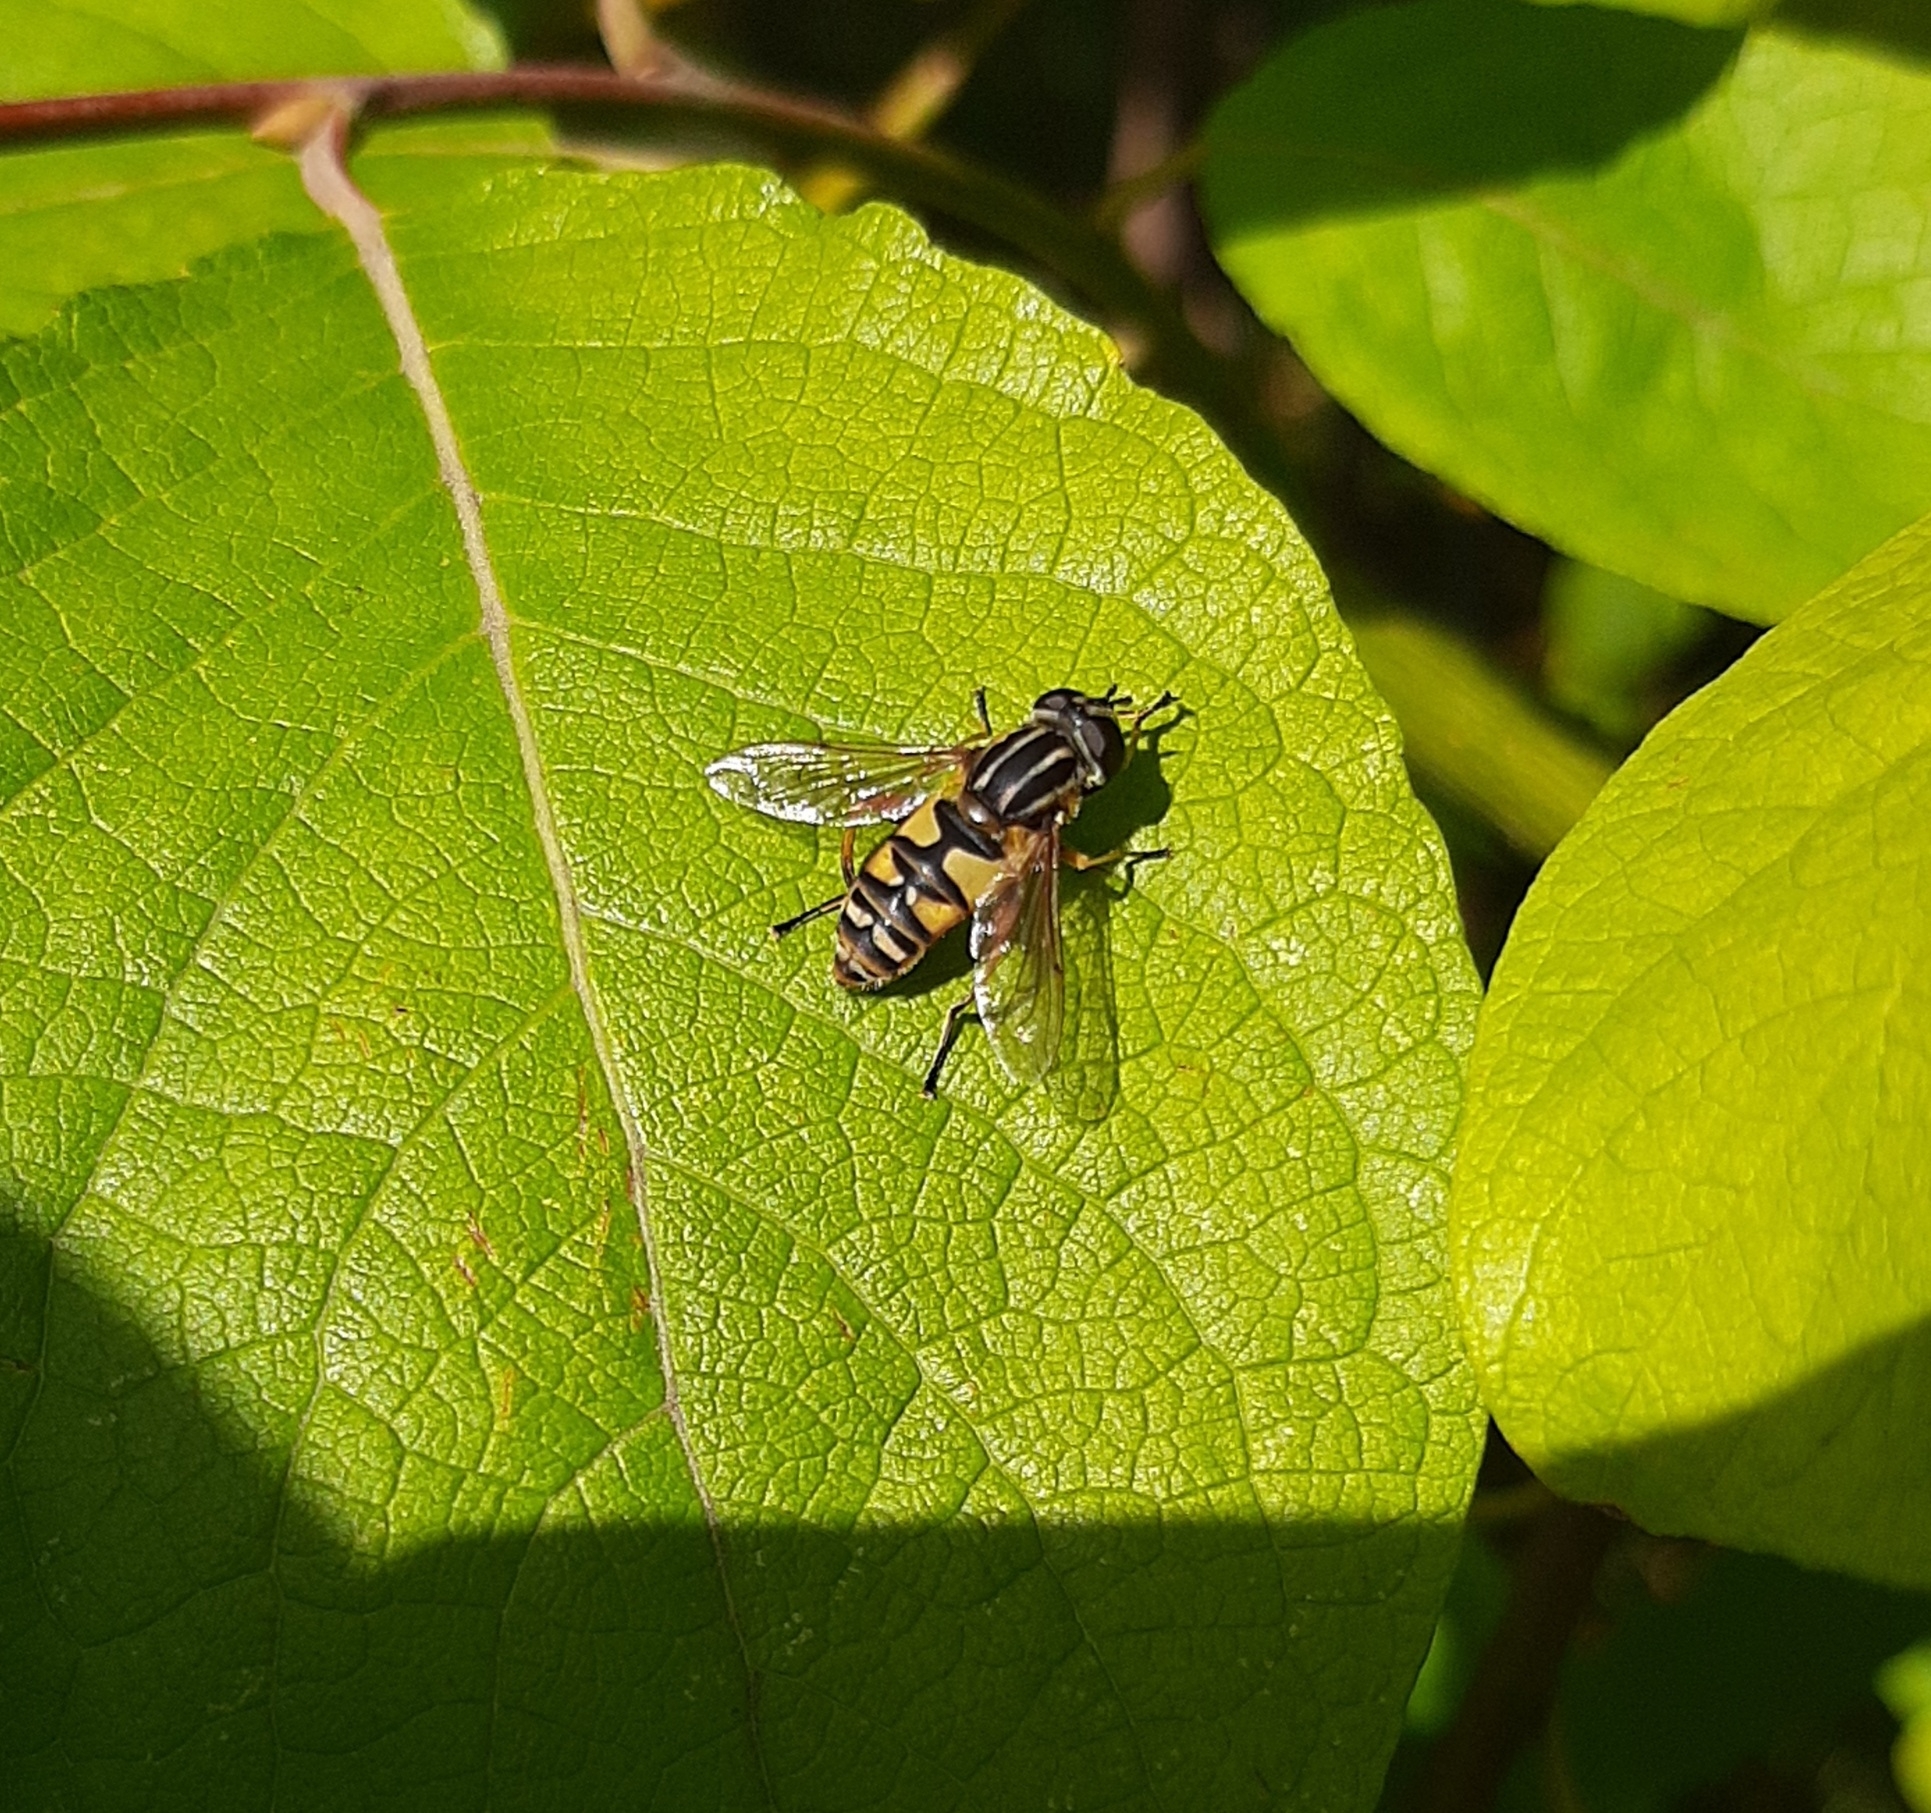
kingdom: Animalia
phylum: Arthropoda
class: Insecta
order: Diptera
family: Syrphidae
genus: Helophilus
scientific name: Helophilus pendulus
